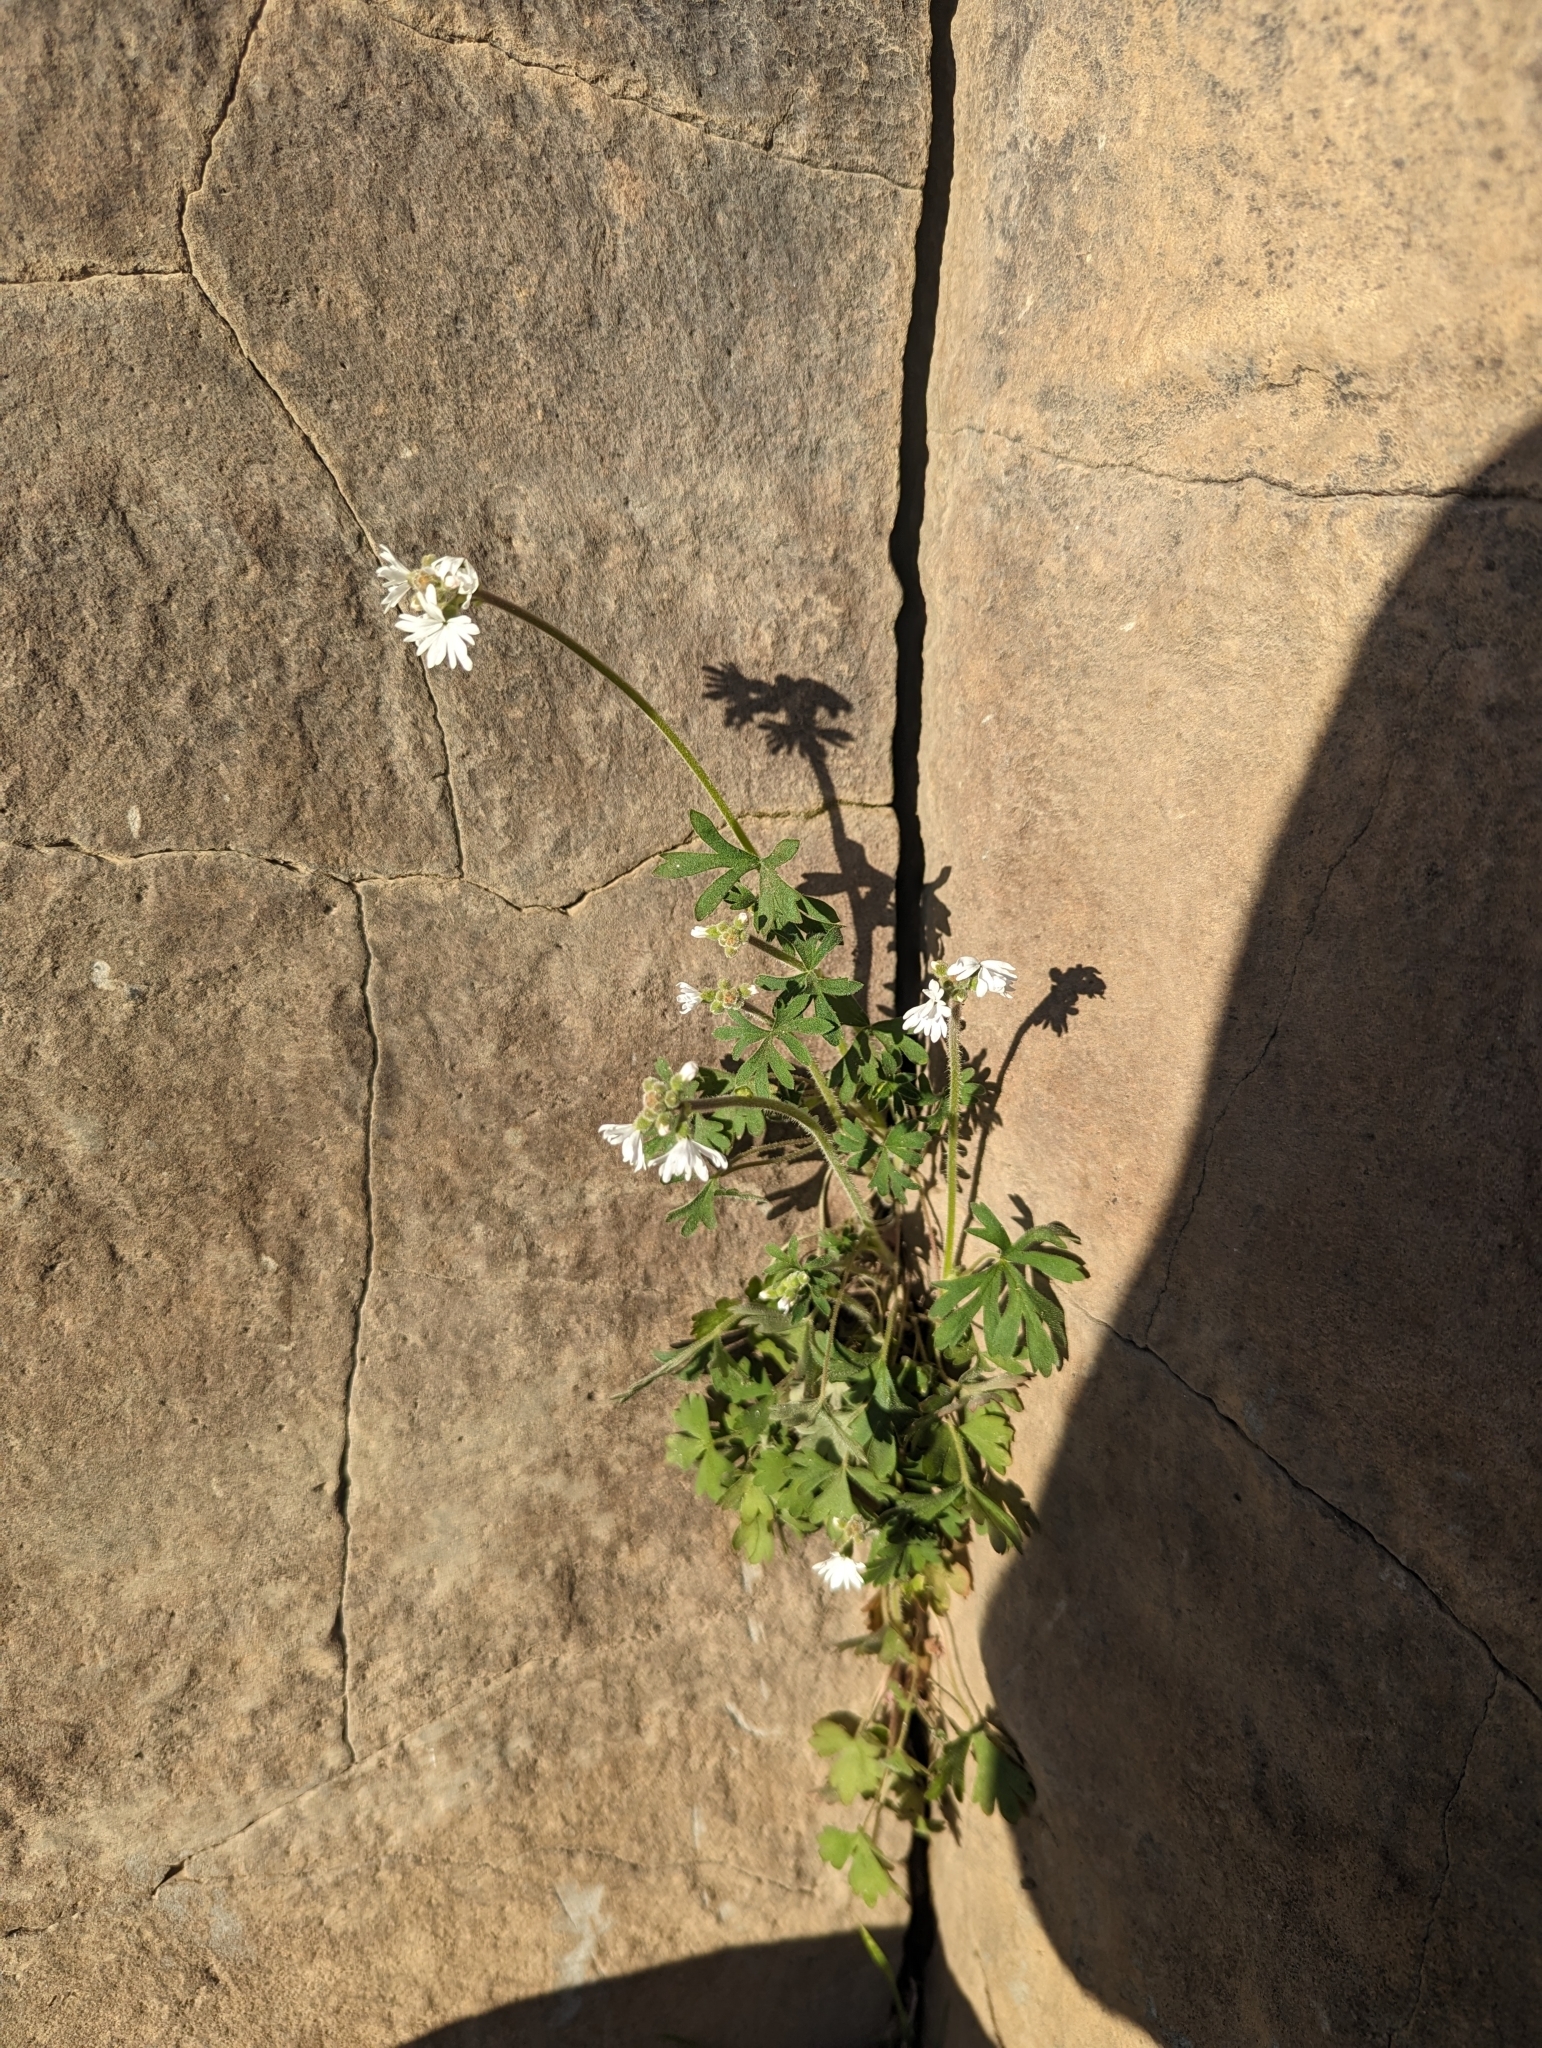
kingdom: Plantae
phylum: Tracheophyta
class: Magnoliopsida
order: Saxifragales
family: Saxifragaceae
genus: Lithophragma
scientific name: Lithophragma parviflorum
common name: Small-flowered fringe-cup
